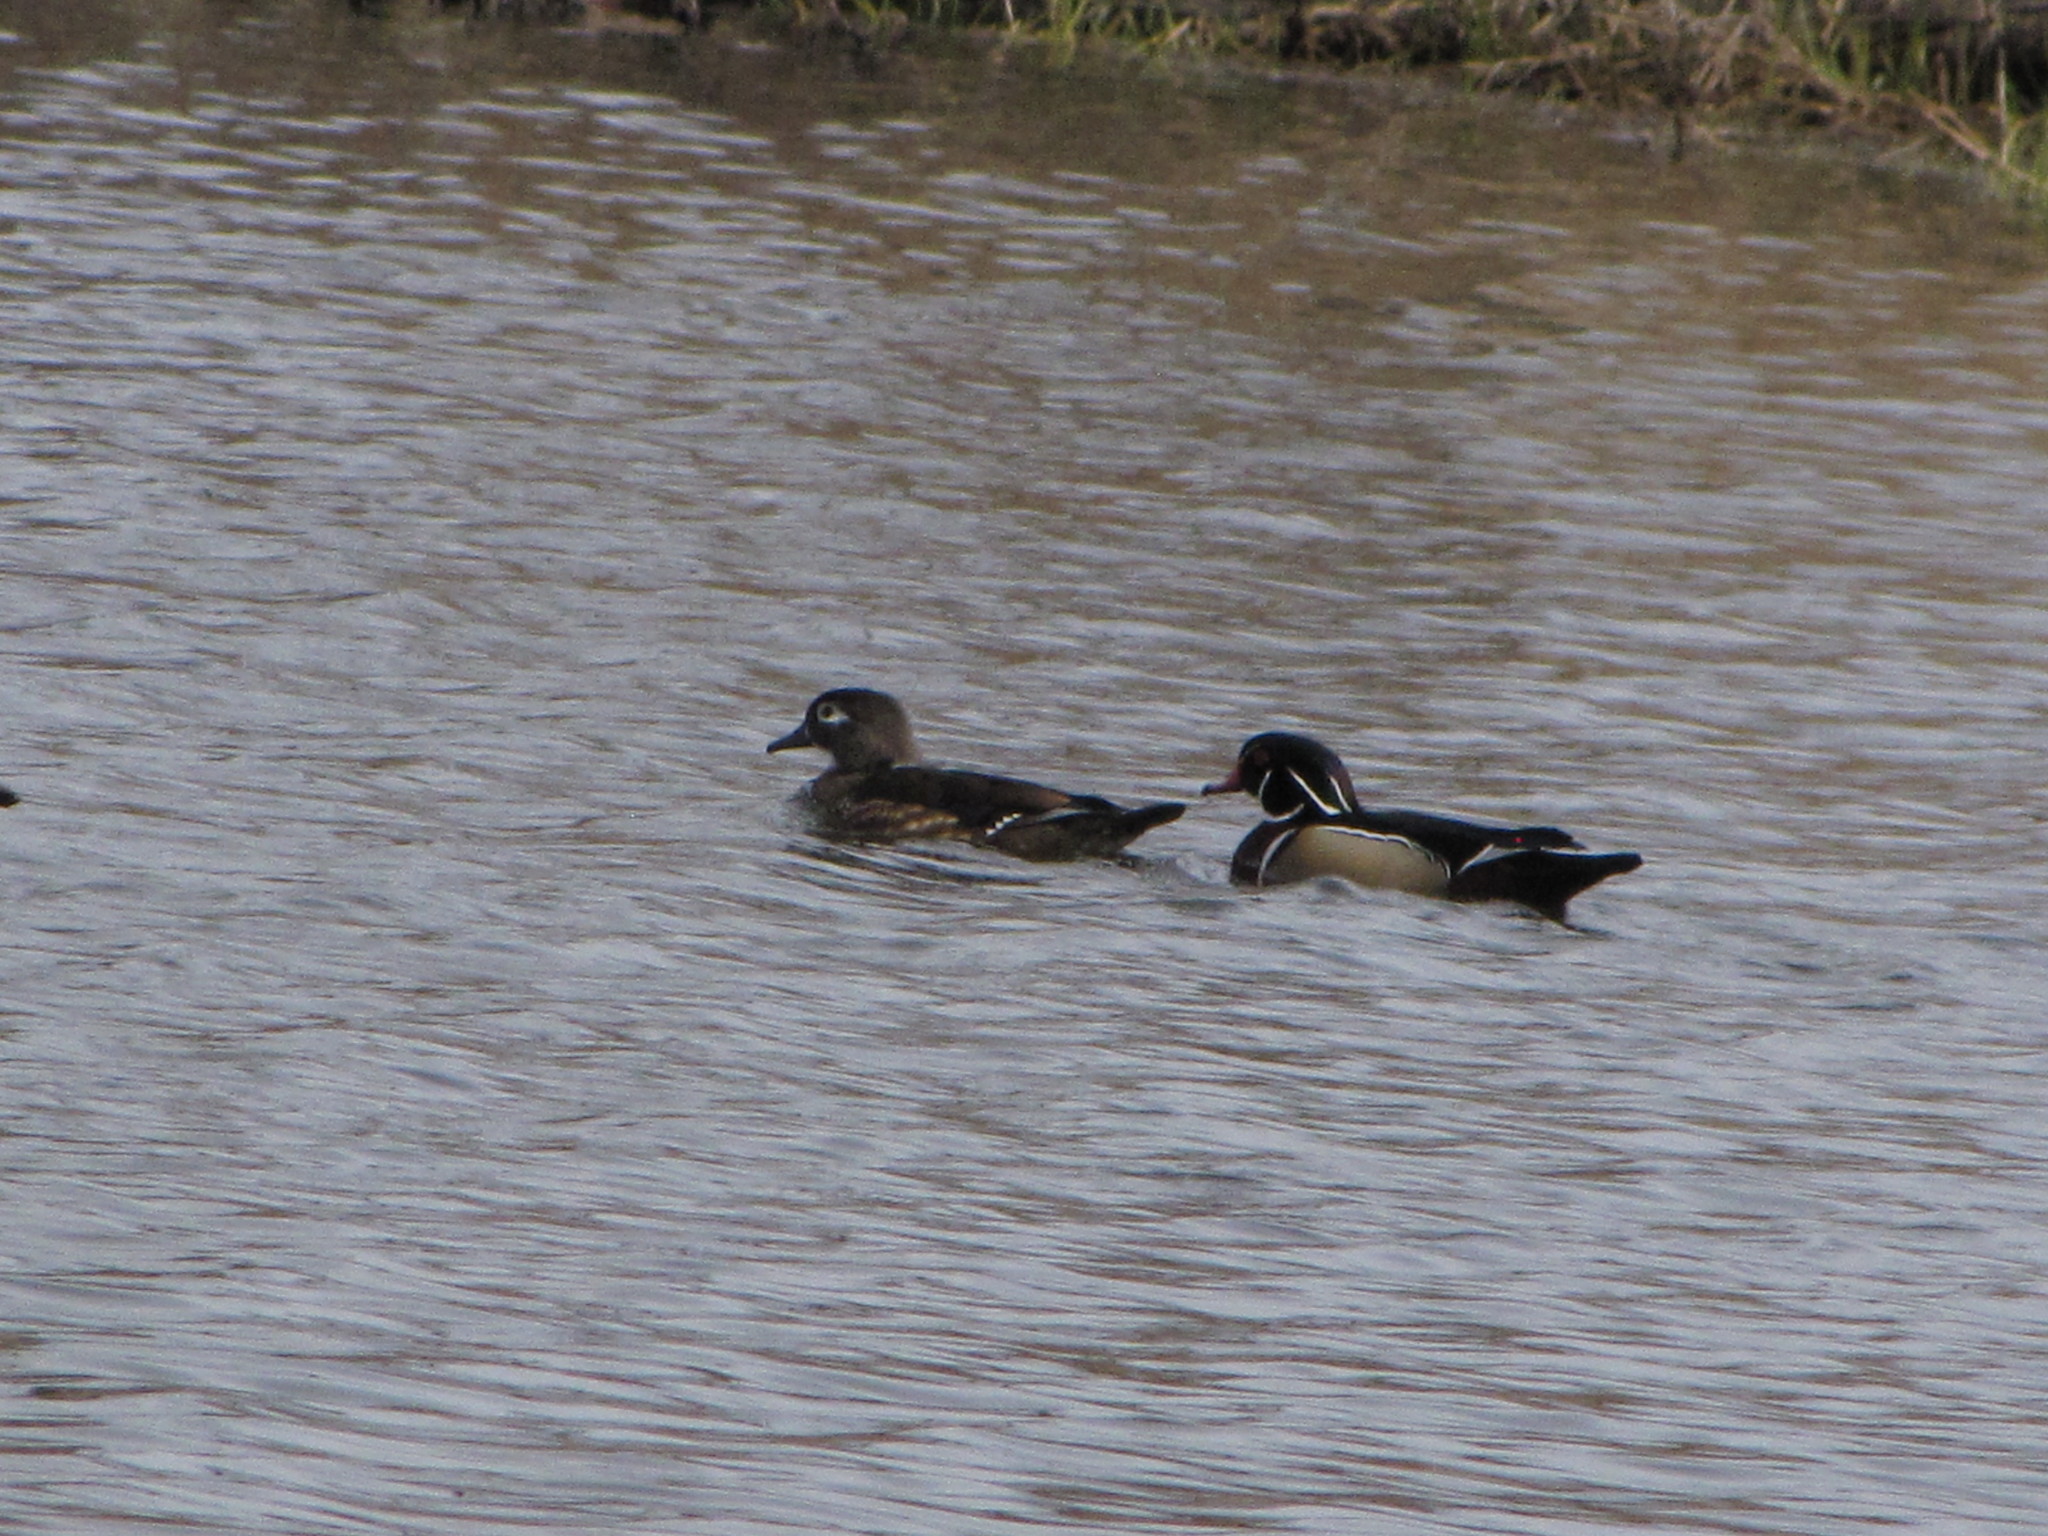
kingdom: Animalia
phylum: Chordata
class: Aves
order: Anseriformes
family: Anatidae
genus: Aix
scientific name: Aix sponsa
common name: Wood duck
